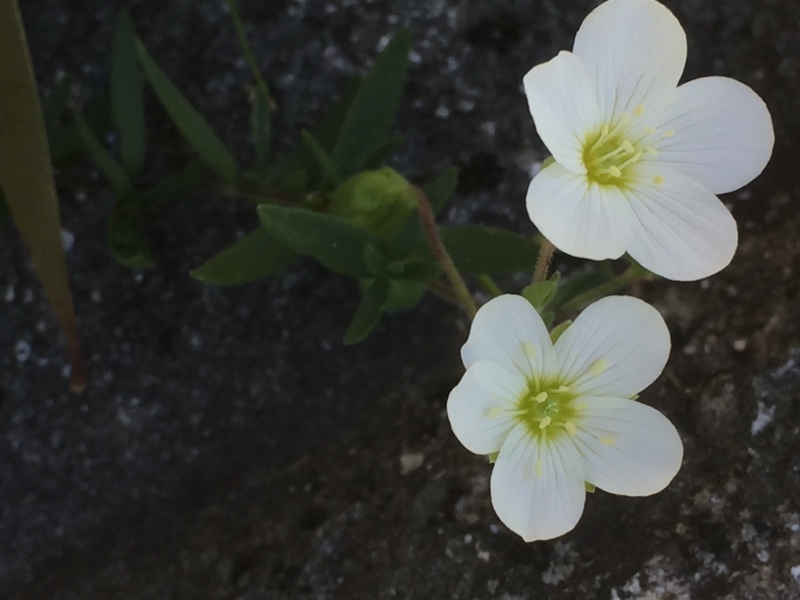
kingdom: Plantae
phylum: Tracheophyta
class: Magnoliopsida
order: Caryophyllales
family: Caryophyllaceae
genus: Arenaria
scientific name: Arenaria montana
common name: Mountain sandwort
